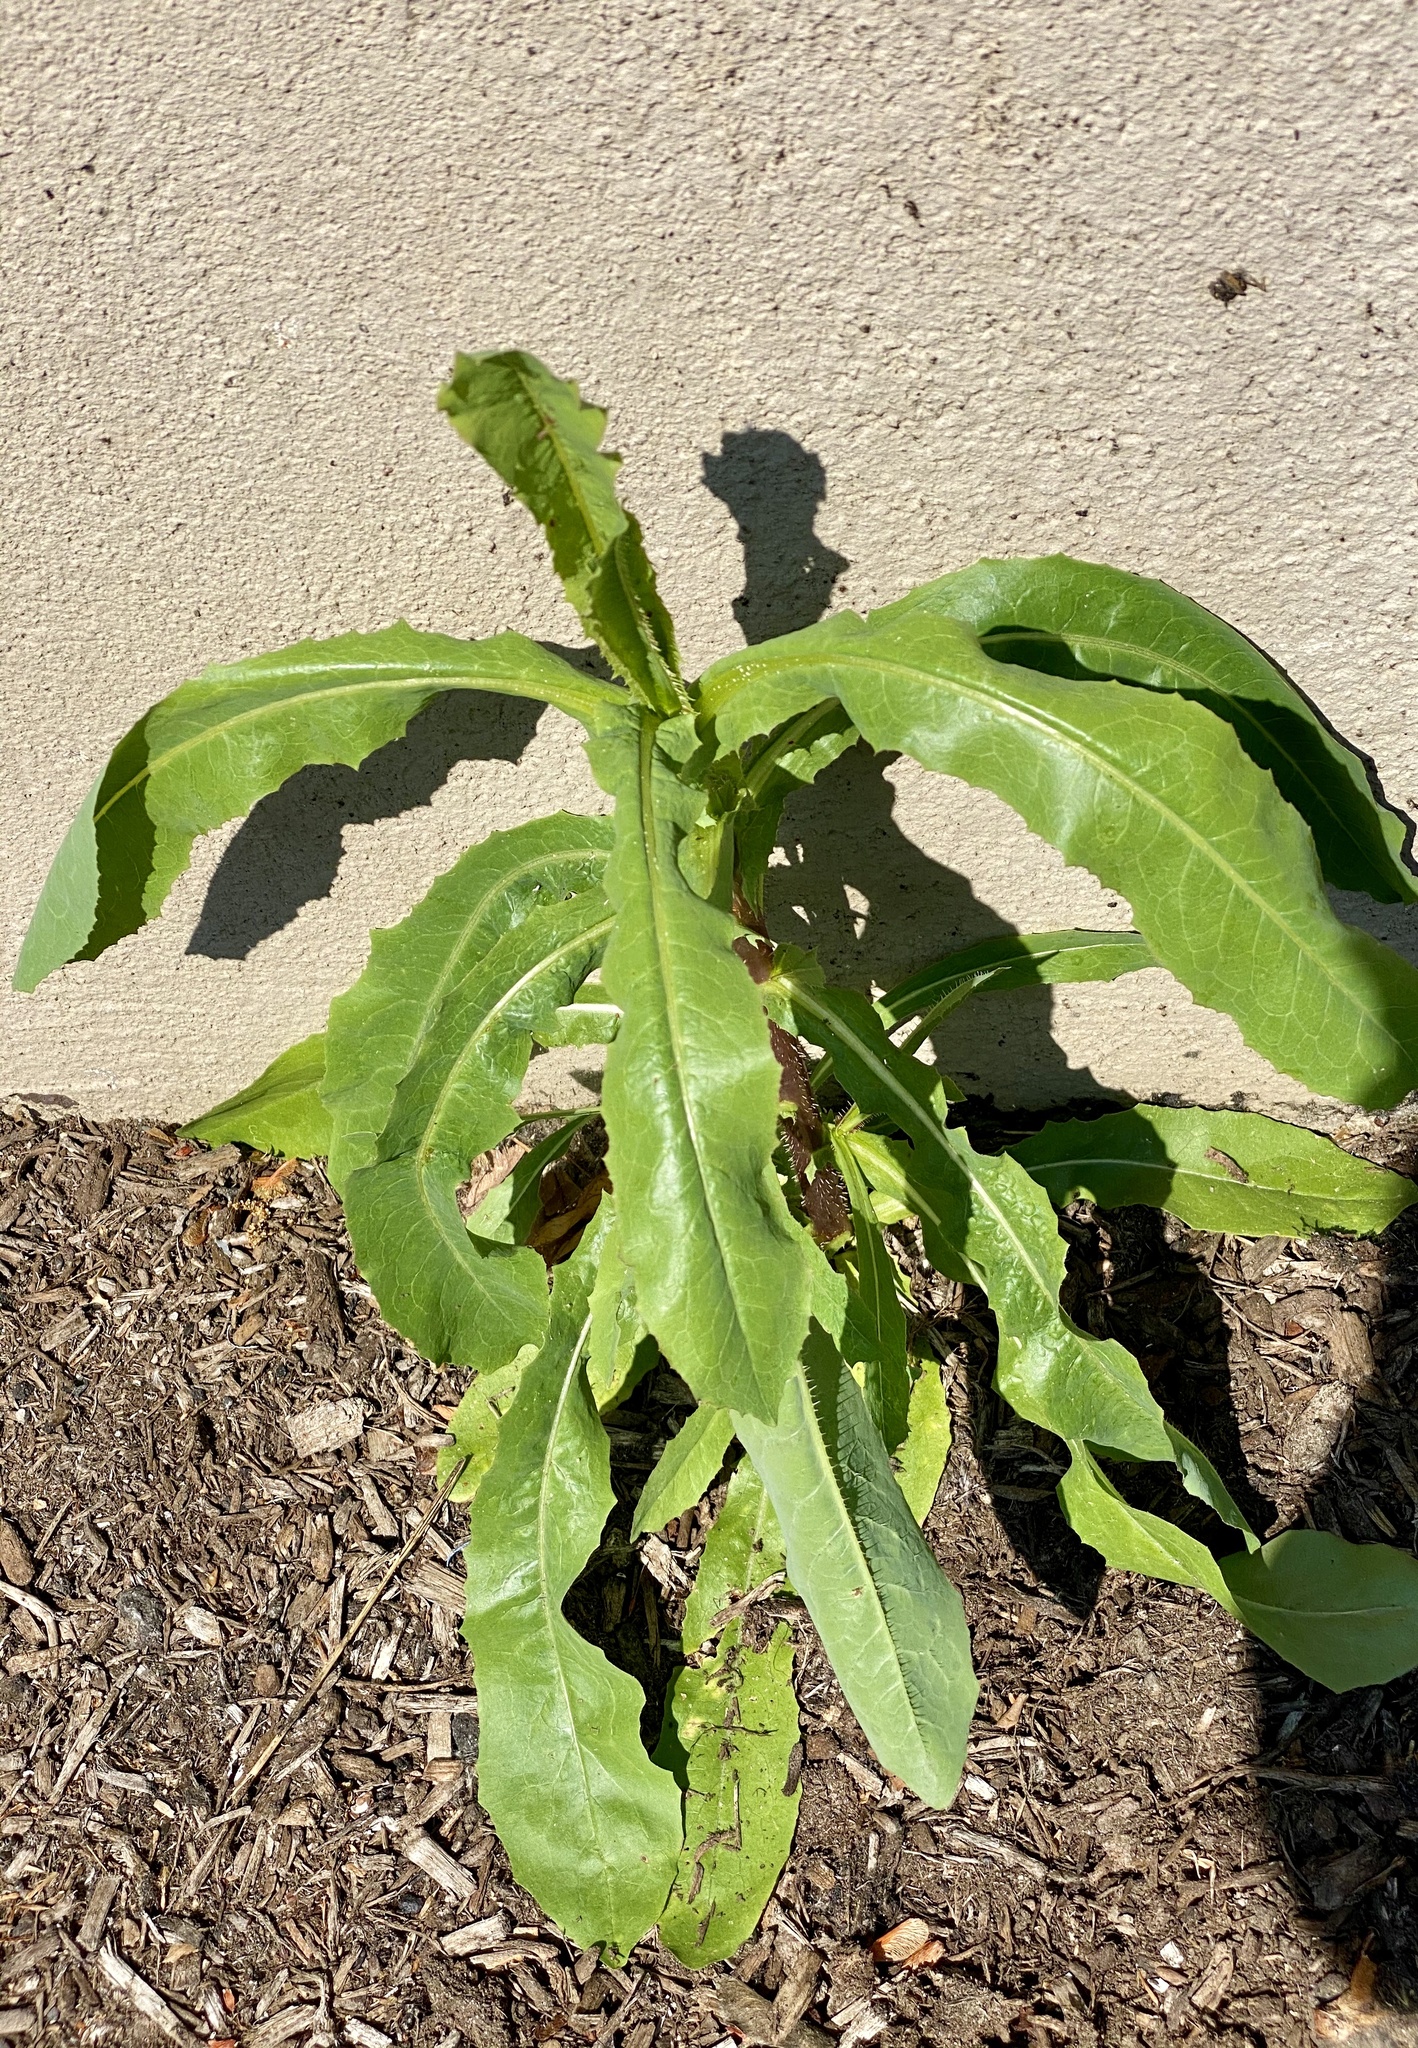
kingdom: Plantae
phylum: Tracheophyta
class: Magnoliopsida
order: Asterales
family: Asteraceae
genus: Lactuca
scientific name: Lactuca serriola
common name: Prickly lettuce
